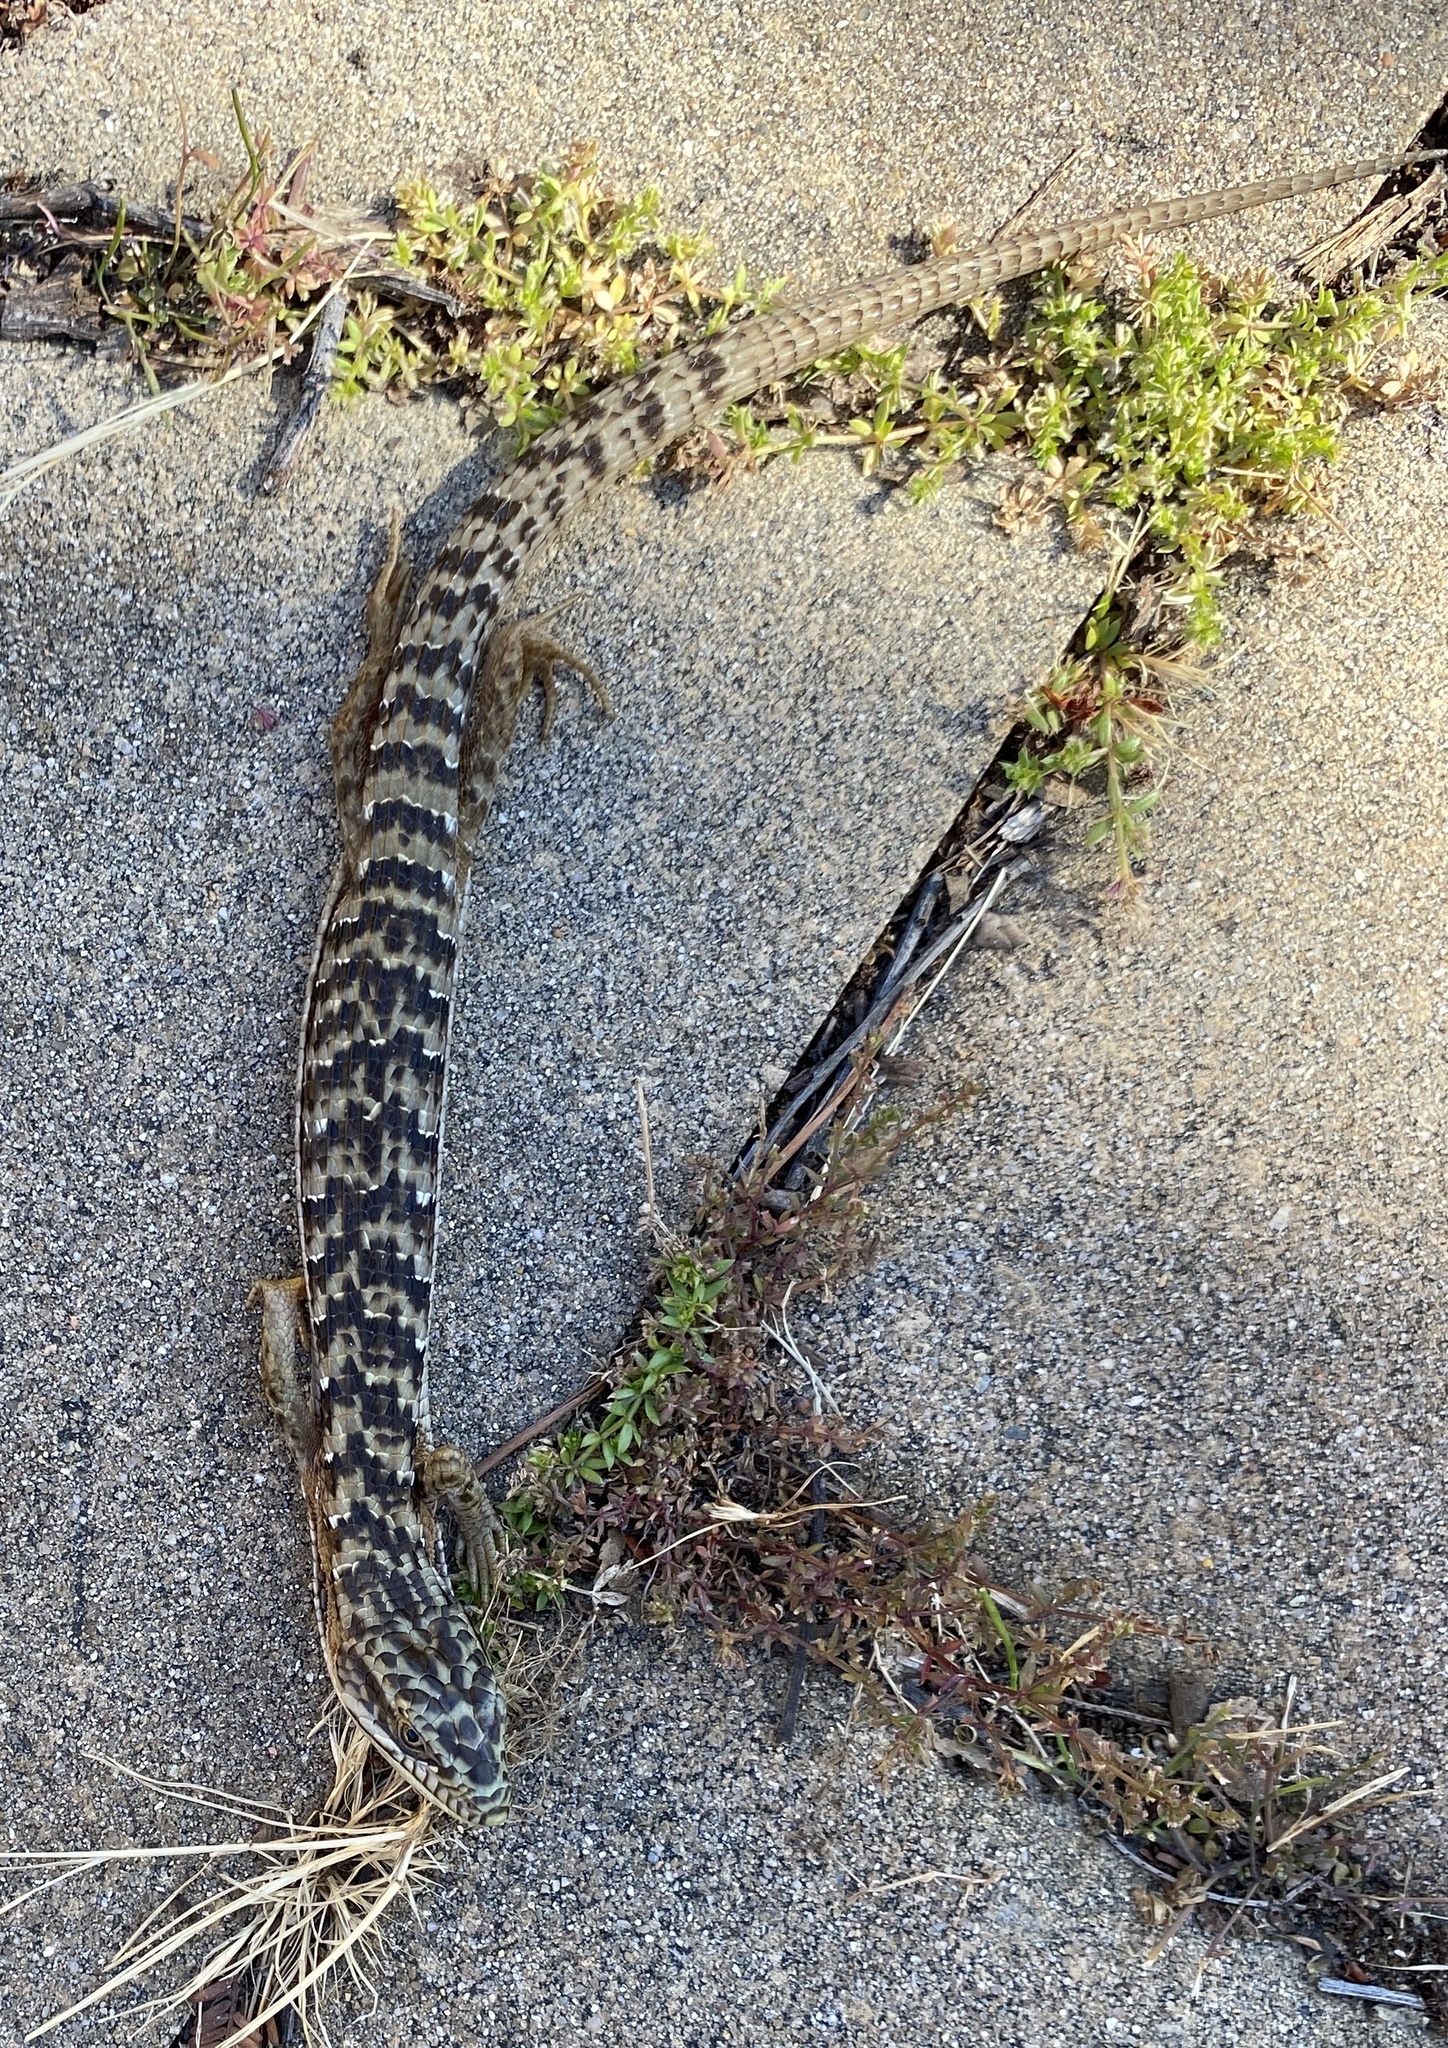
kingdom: Animalia
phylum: Chordata
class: Squamata
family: Anguidae
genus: Elgaria
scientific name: Elgaria multicarinata
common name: Southern alligator lizard
